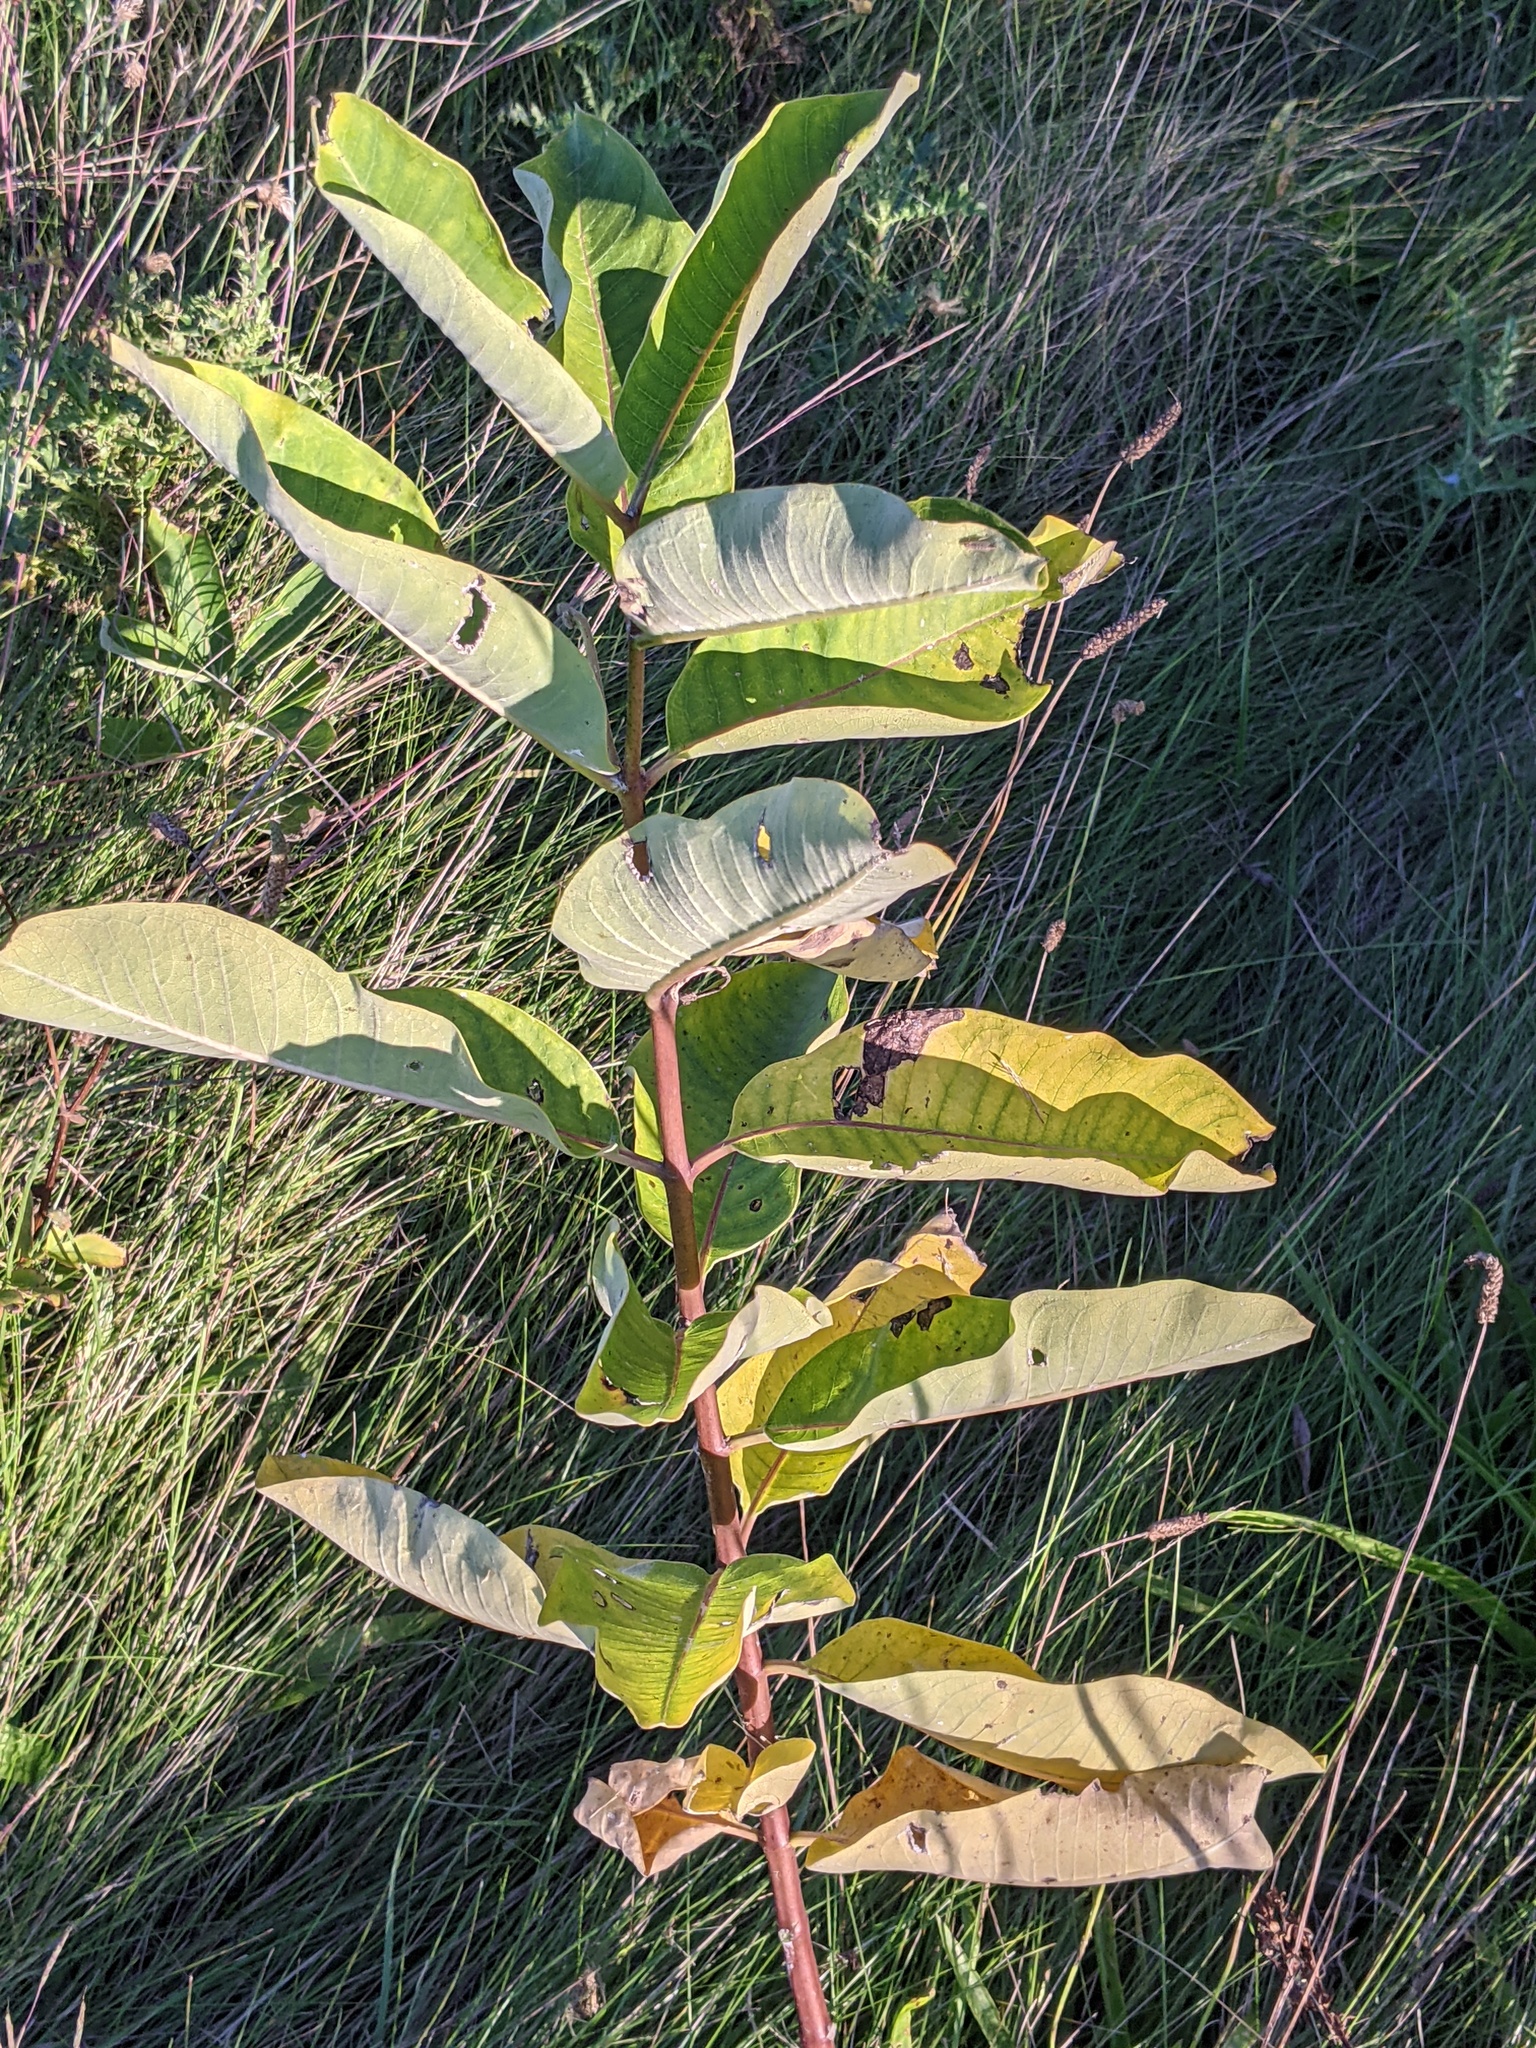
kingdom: Plantae
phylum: Tracheophyta
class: Magnoliopsida
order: Gentianales
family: Apocynaceae
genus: Asclepias
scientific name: Asclepias syriaca
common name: Common milkweed
